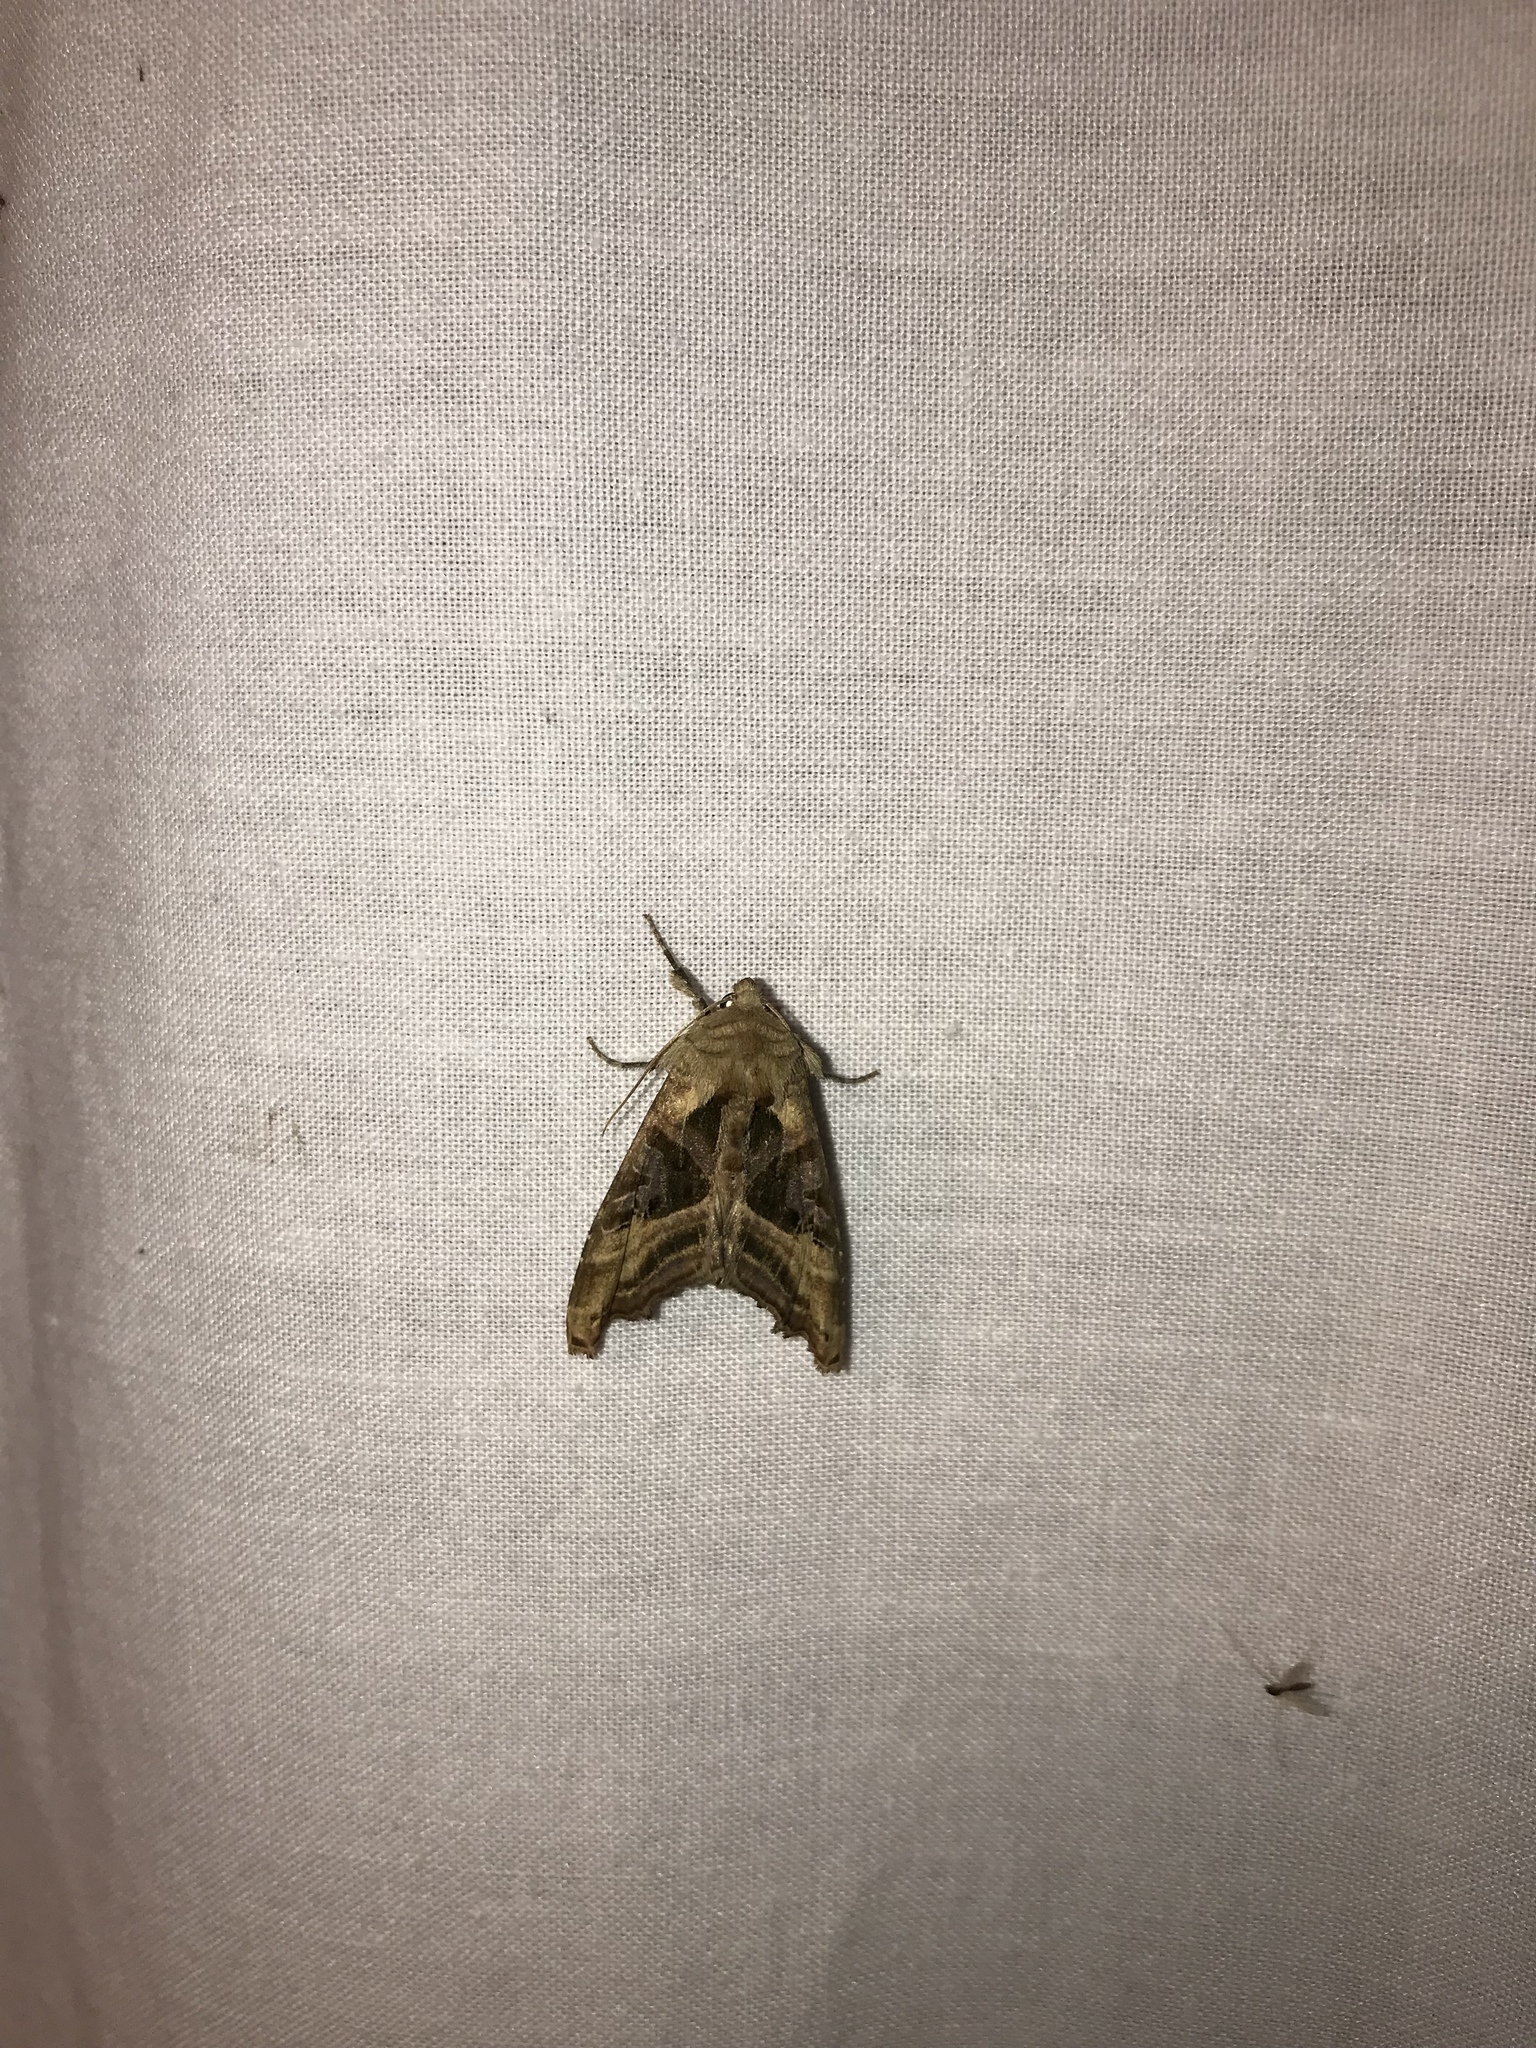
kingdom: Animalia
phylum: Arthropoda
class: Insecta
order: Lepidoptera
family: Noctuidae
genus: Phlogophora
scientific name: Phlogophora iris
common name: Olive angle shades
